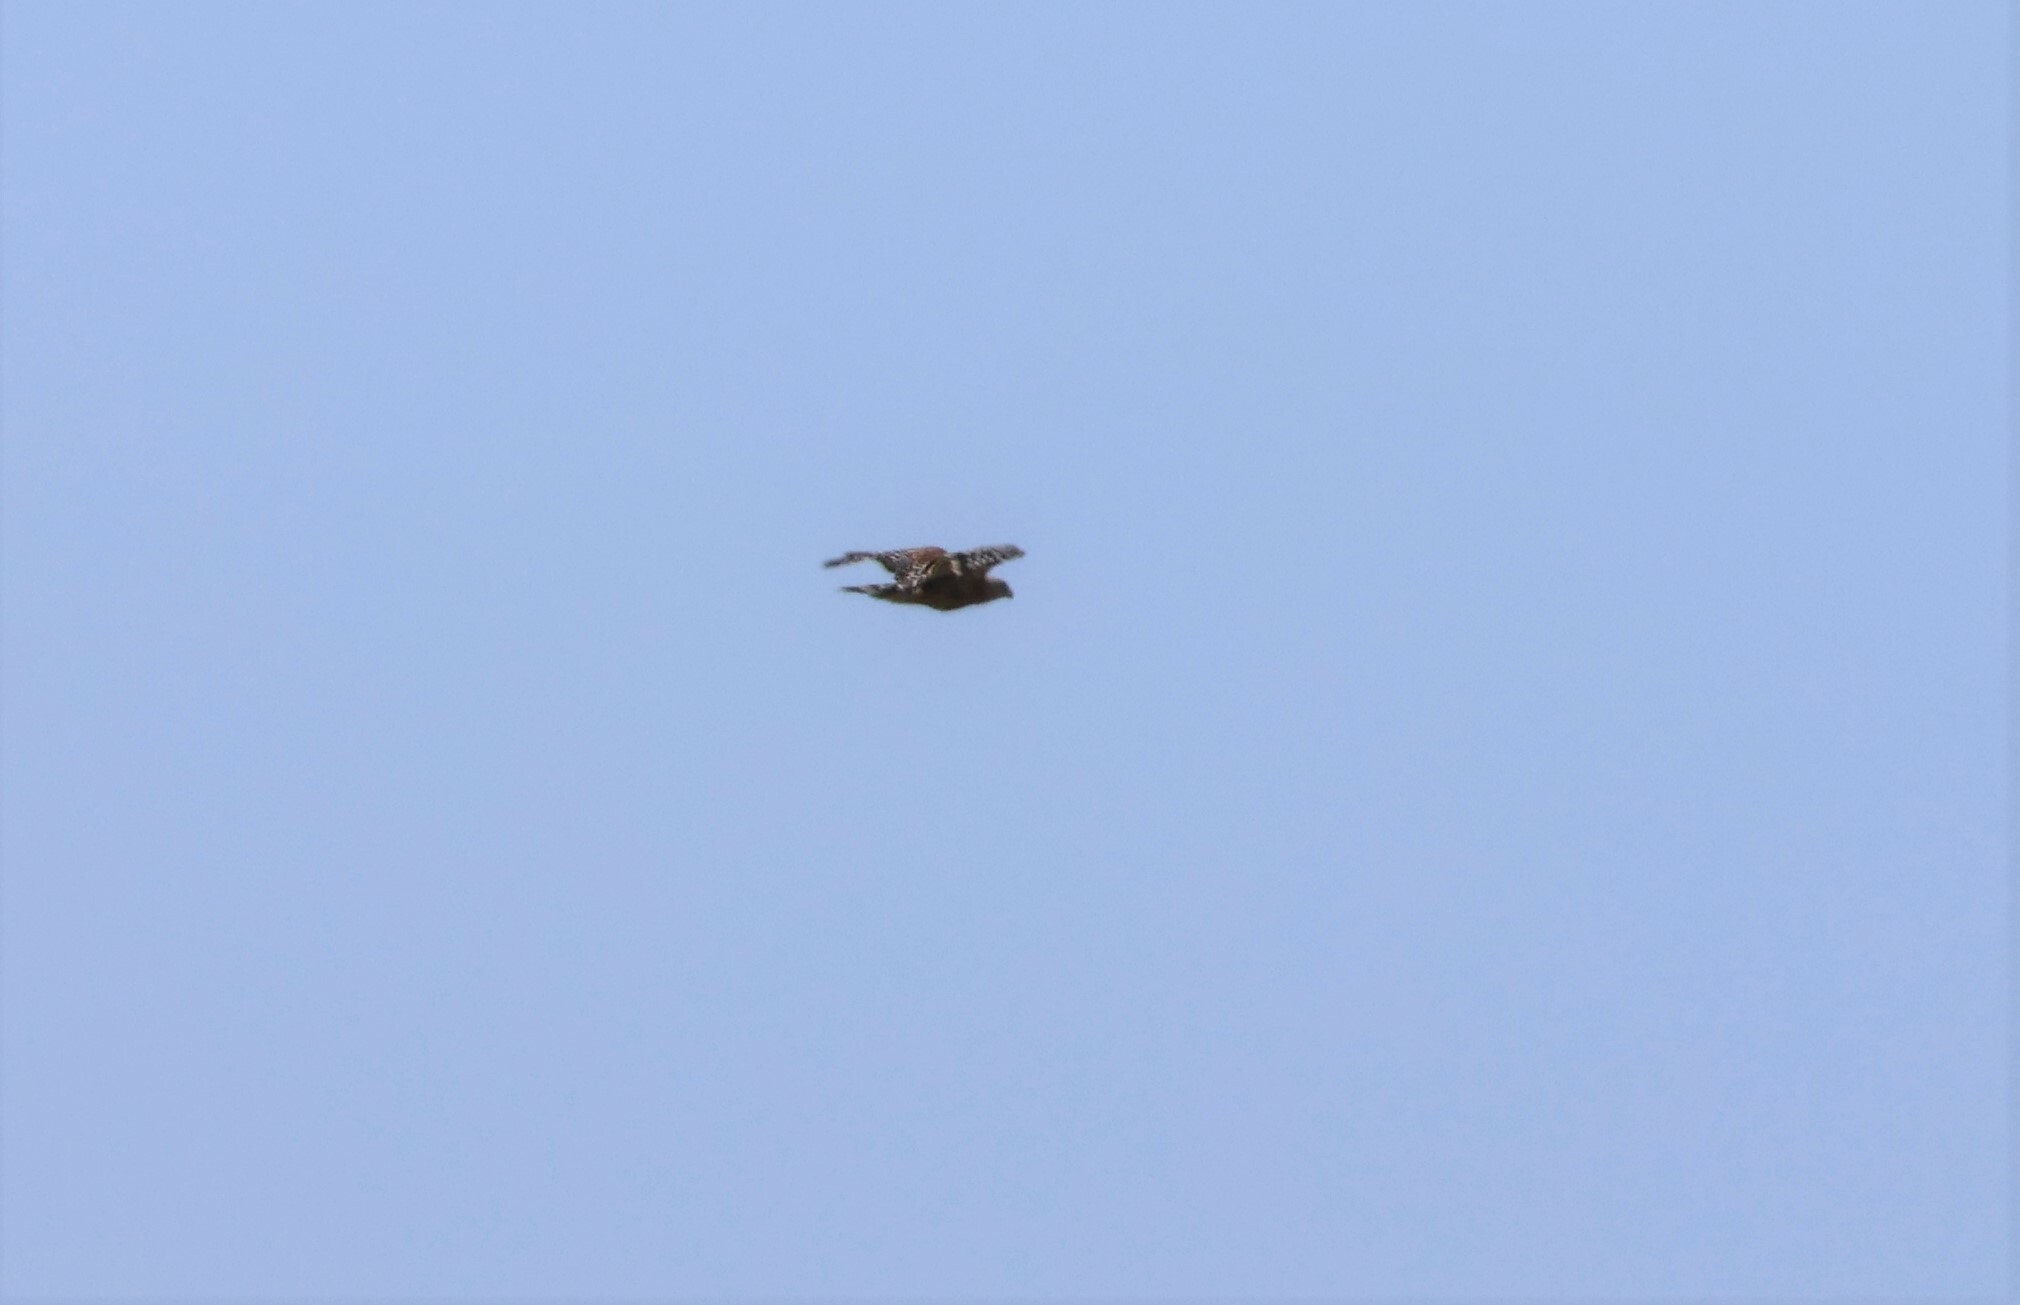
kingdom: Animalia
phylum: Chordata
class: Aves
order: Accipitriformes
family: Accipitridae
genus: Buteo
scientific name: Buteo lineatus
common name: Red-shouldered hawk
